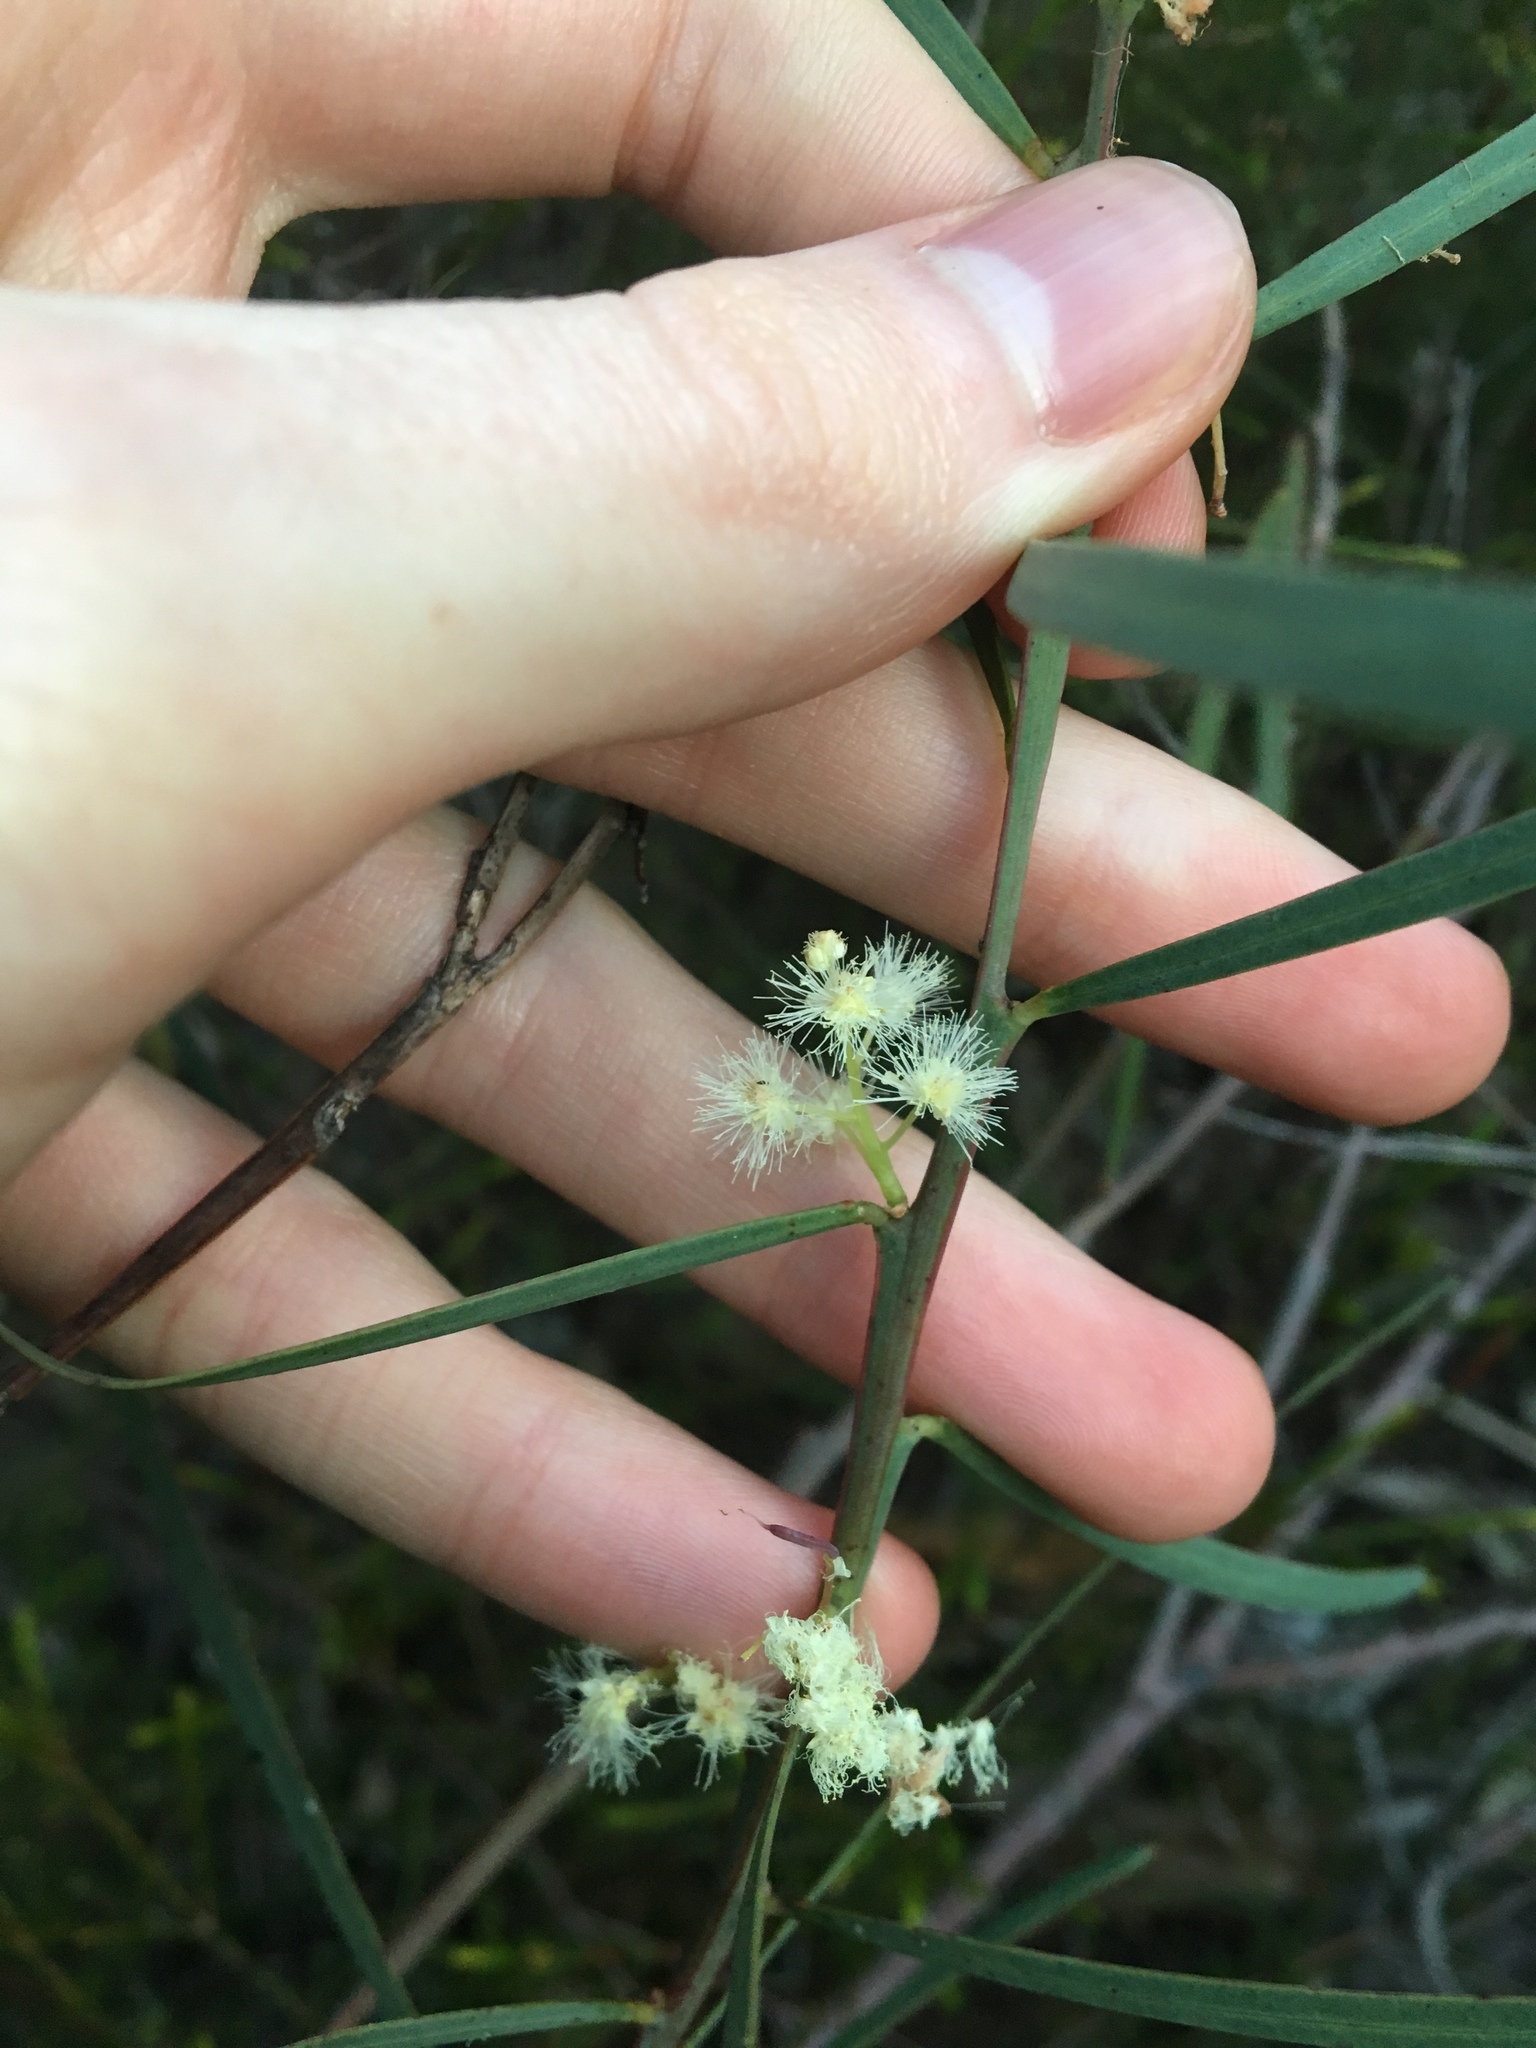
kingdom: Plantae
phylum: Tracheophyta
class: Magnoliopsida
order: Fabales
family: Fabaceae
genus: Acacia
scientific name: Acacia suaveolens
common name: Sweet acacia
